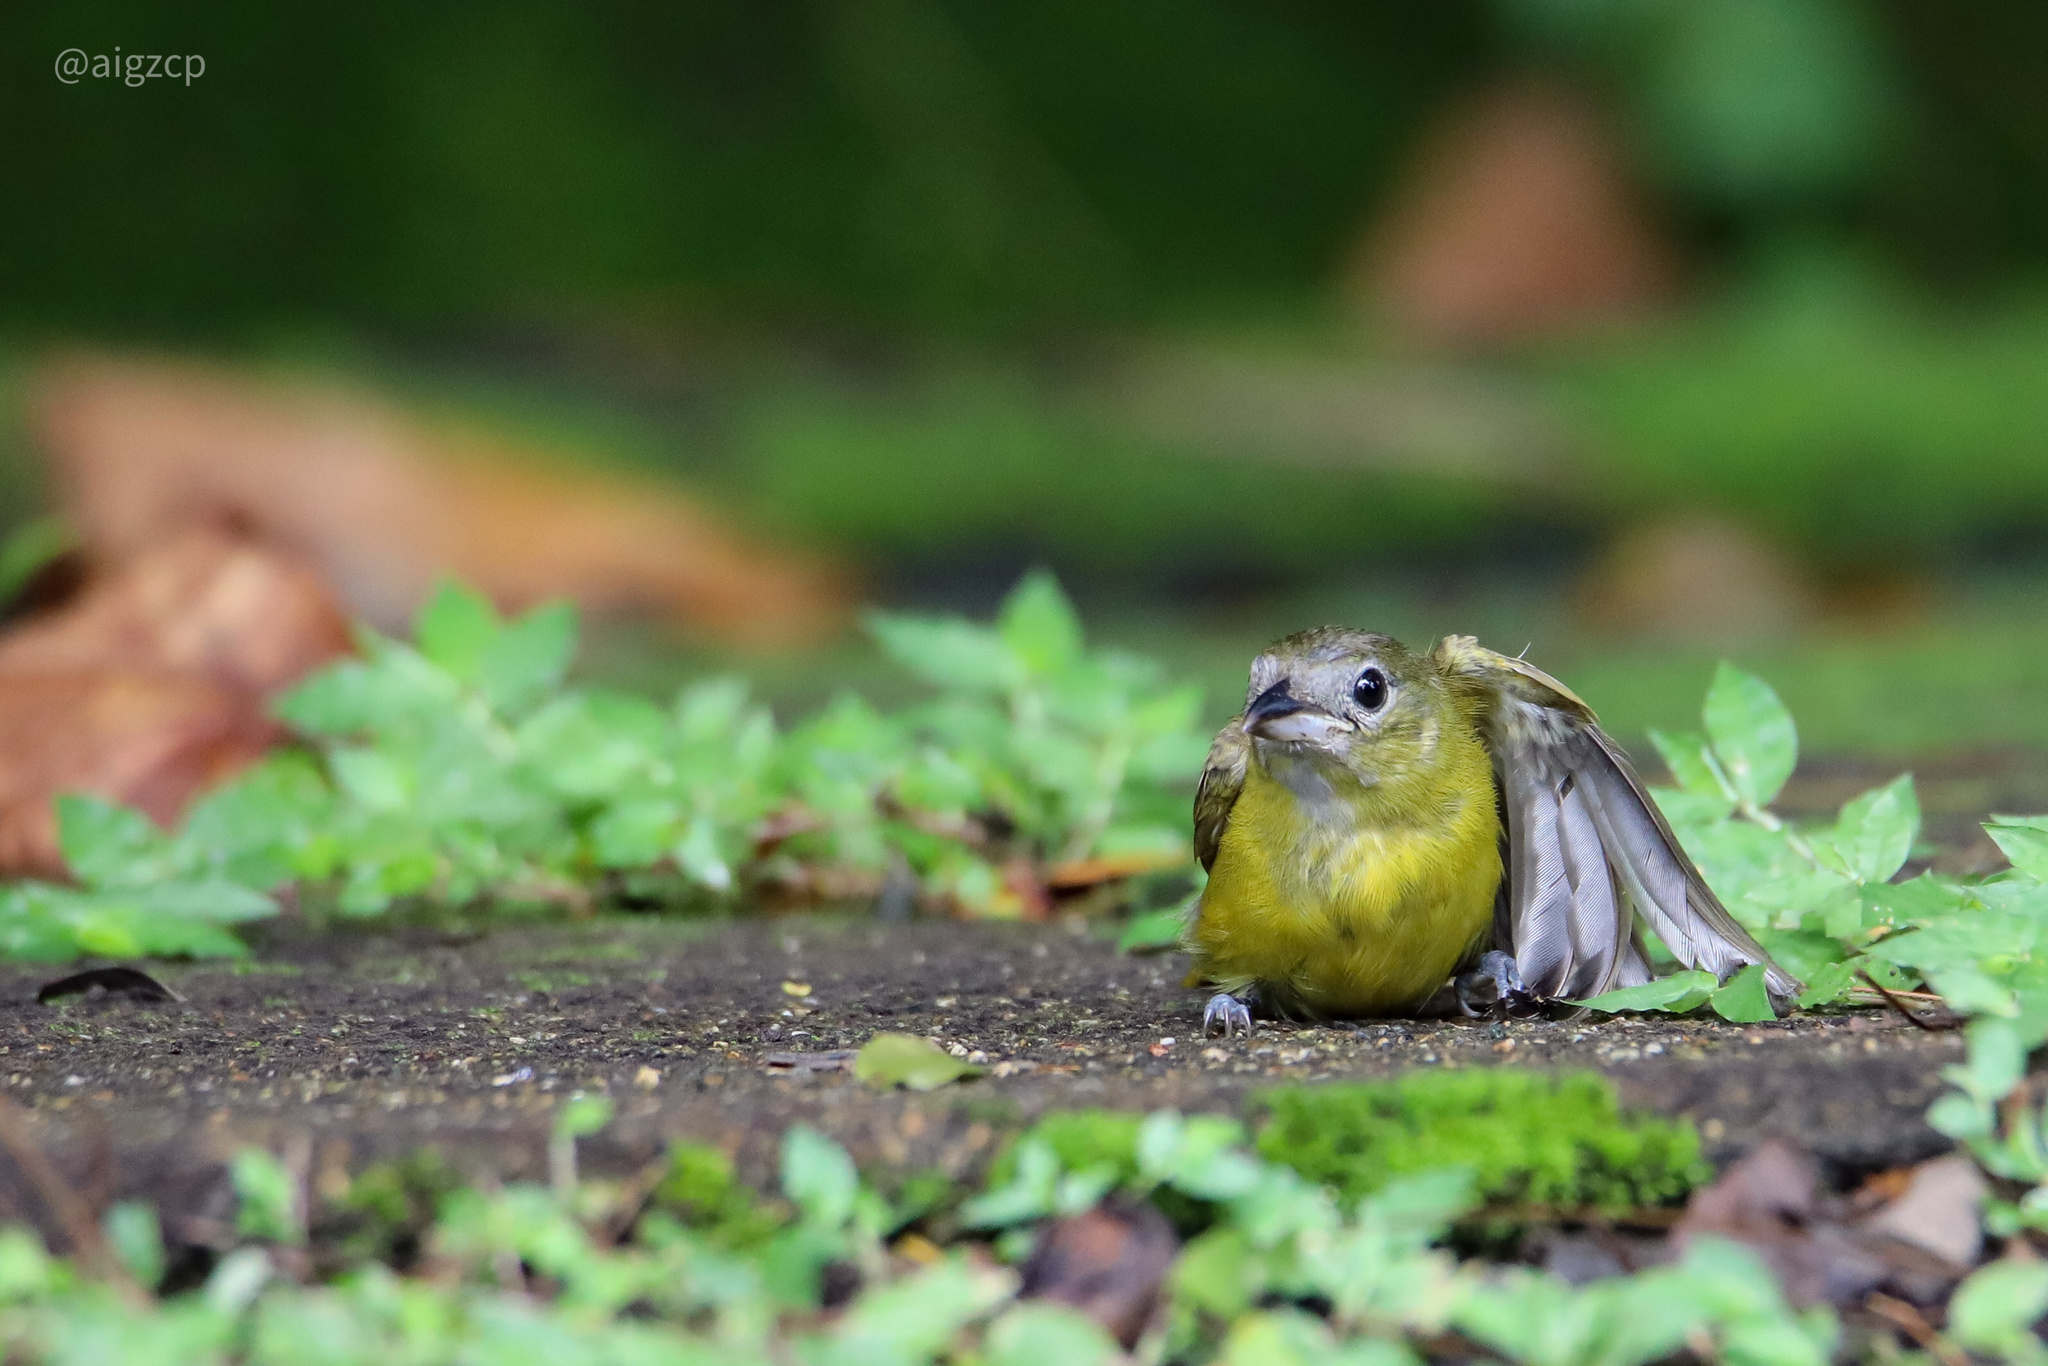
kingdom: Animalia
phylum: Chordata
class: Aves
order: Passeriformes
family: Thraupidae
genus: Loriotus
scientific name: Loriotus luctuosus
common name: White-shouldered tanager
